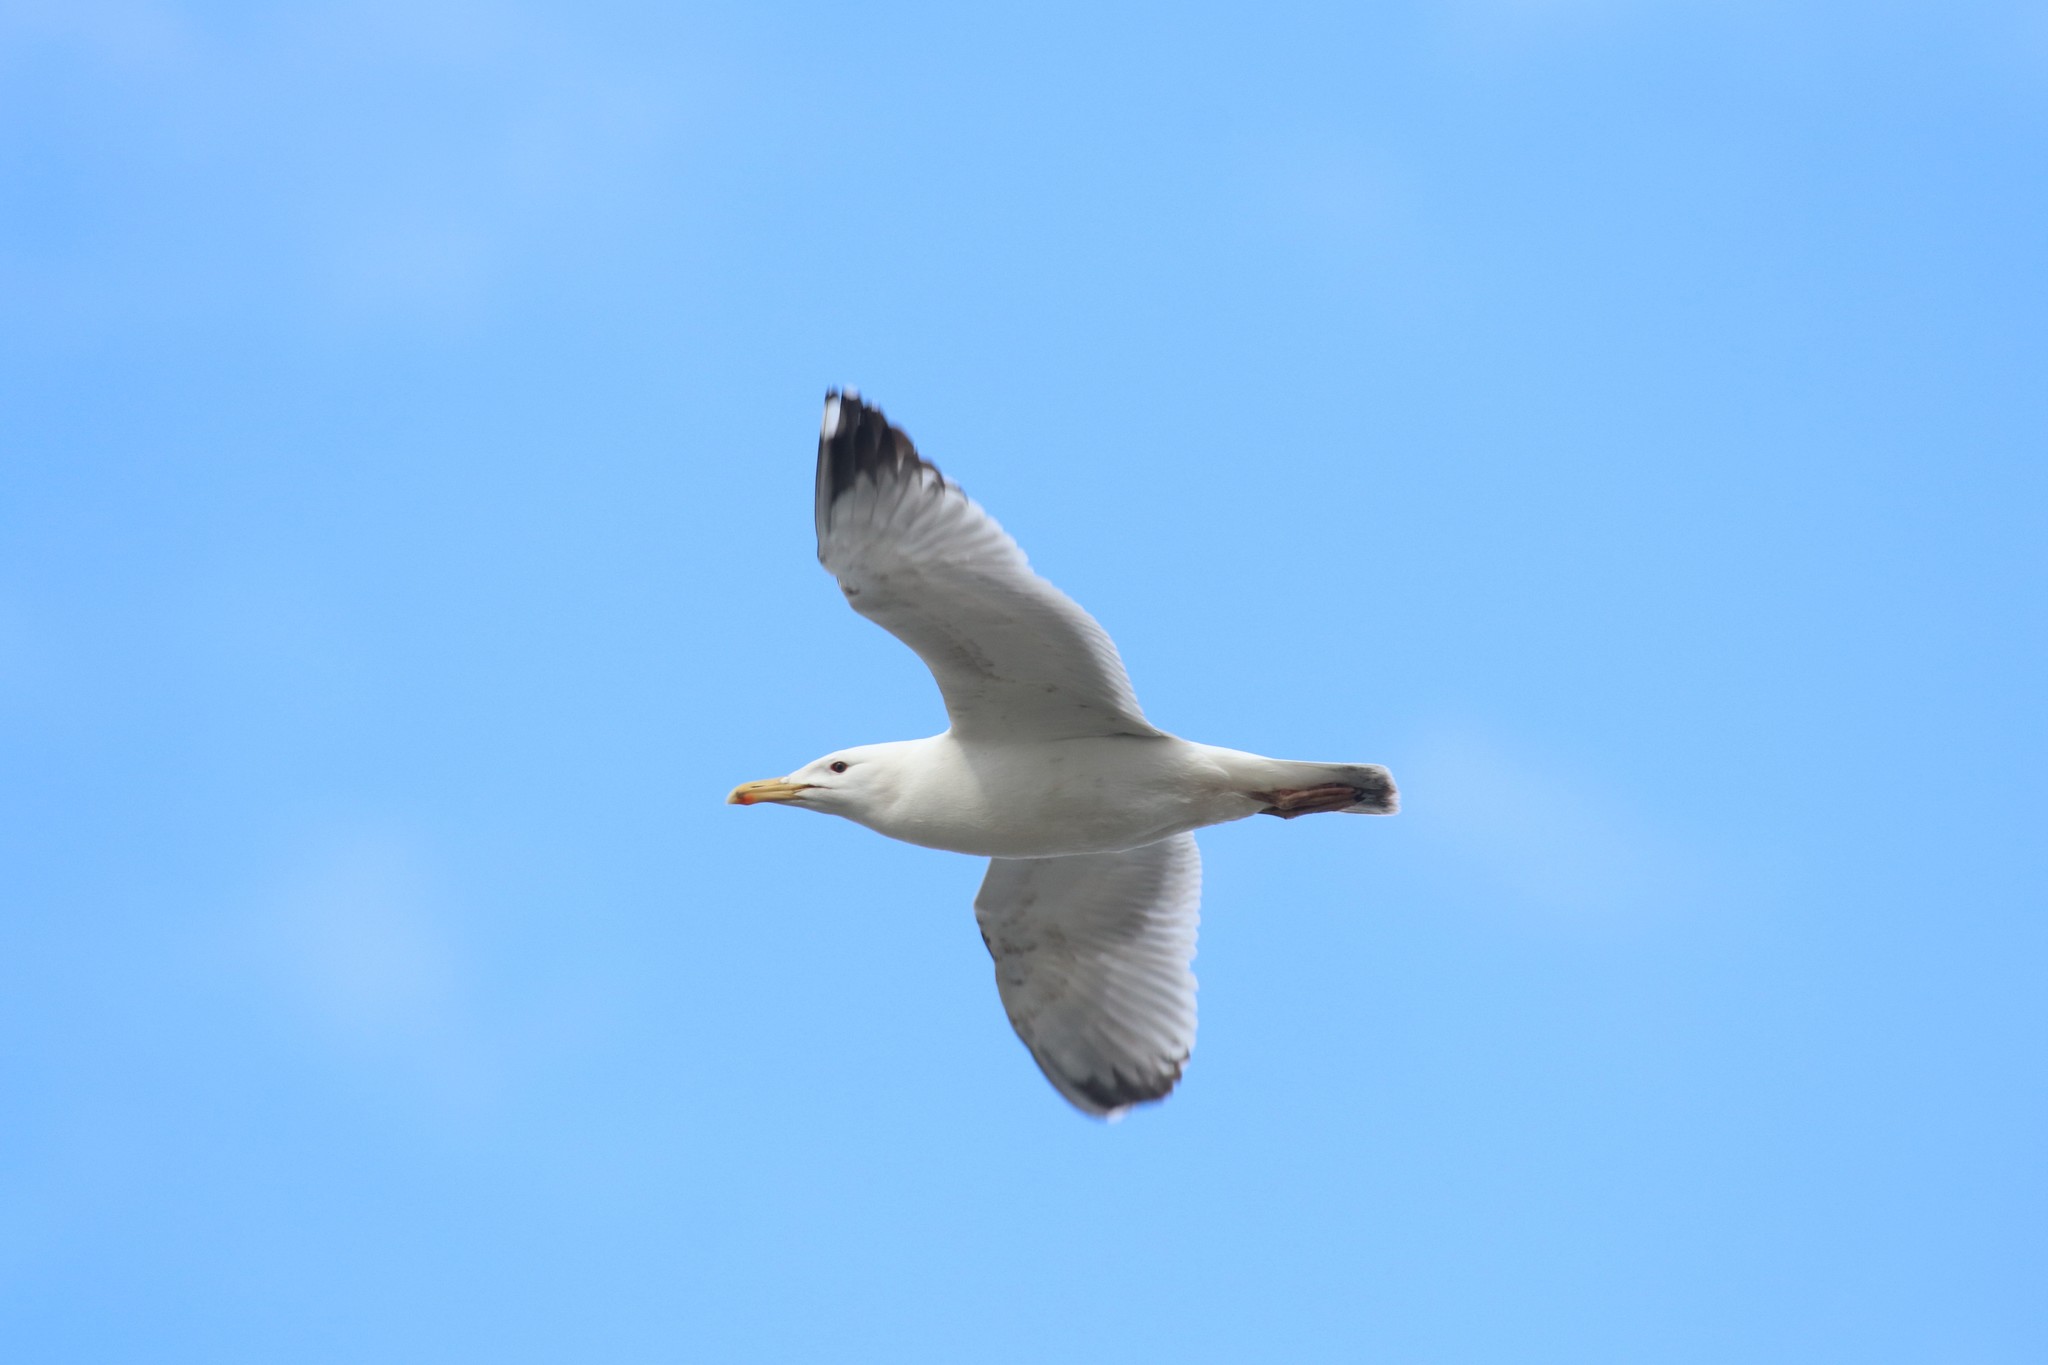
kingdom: Animalia
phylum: Chordata
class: Aves
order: Charadriiformes
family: Laridae
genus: Larus
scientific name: Larus cachinnans
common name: Caspian gull
